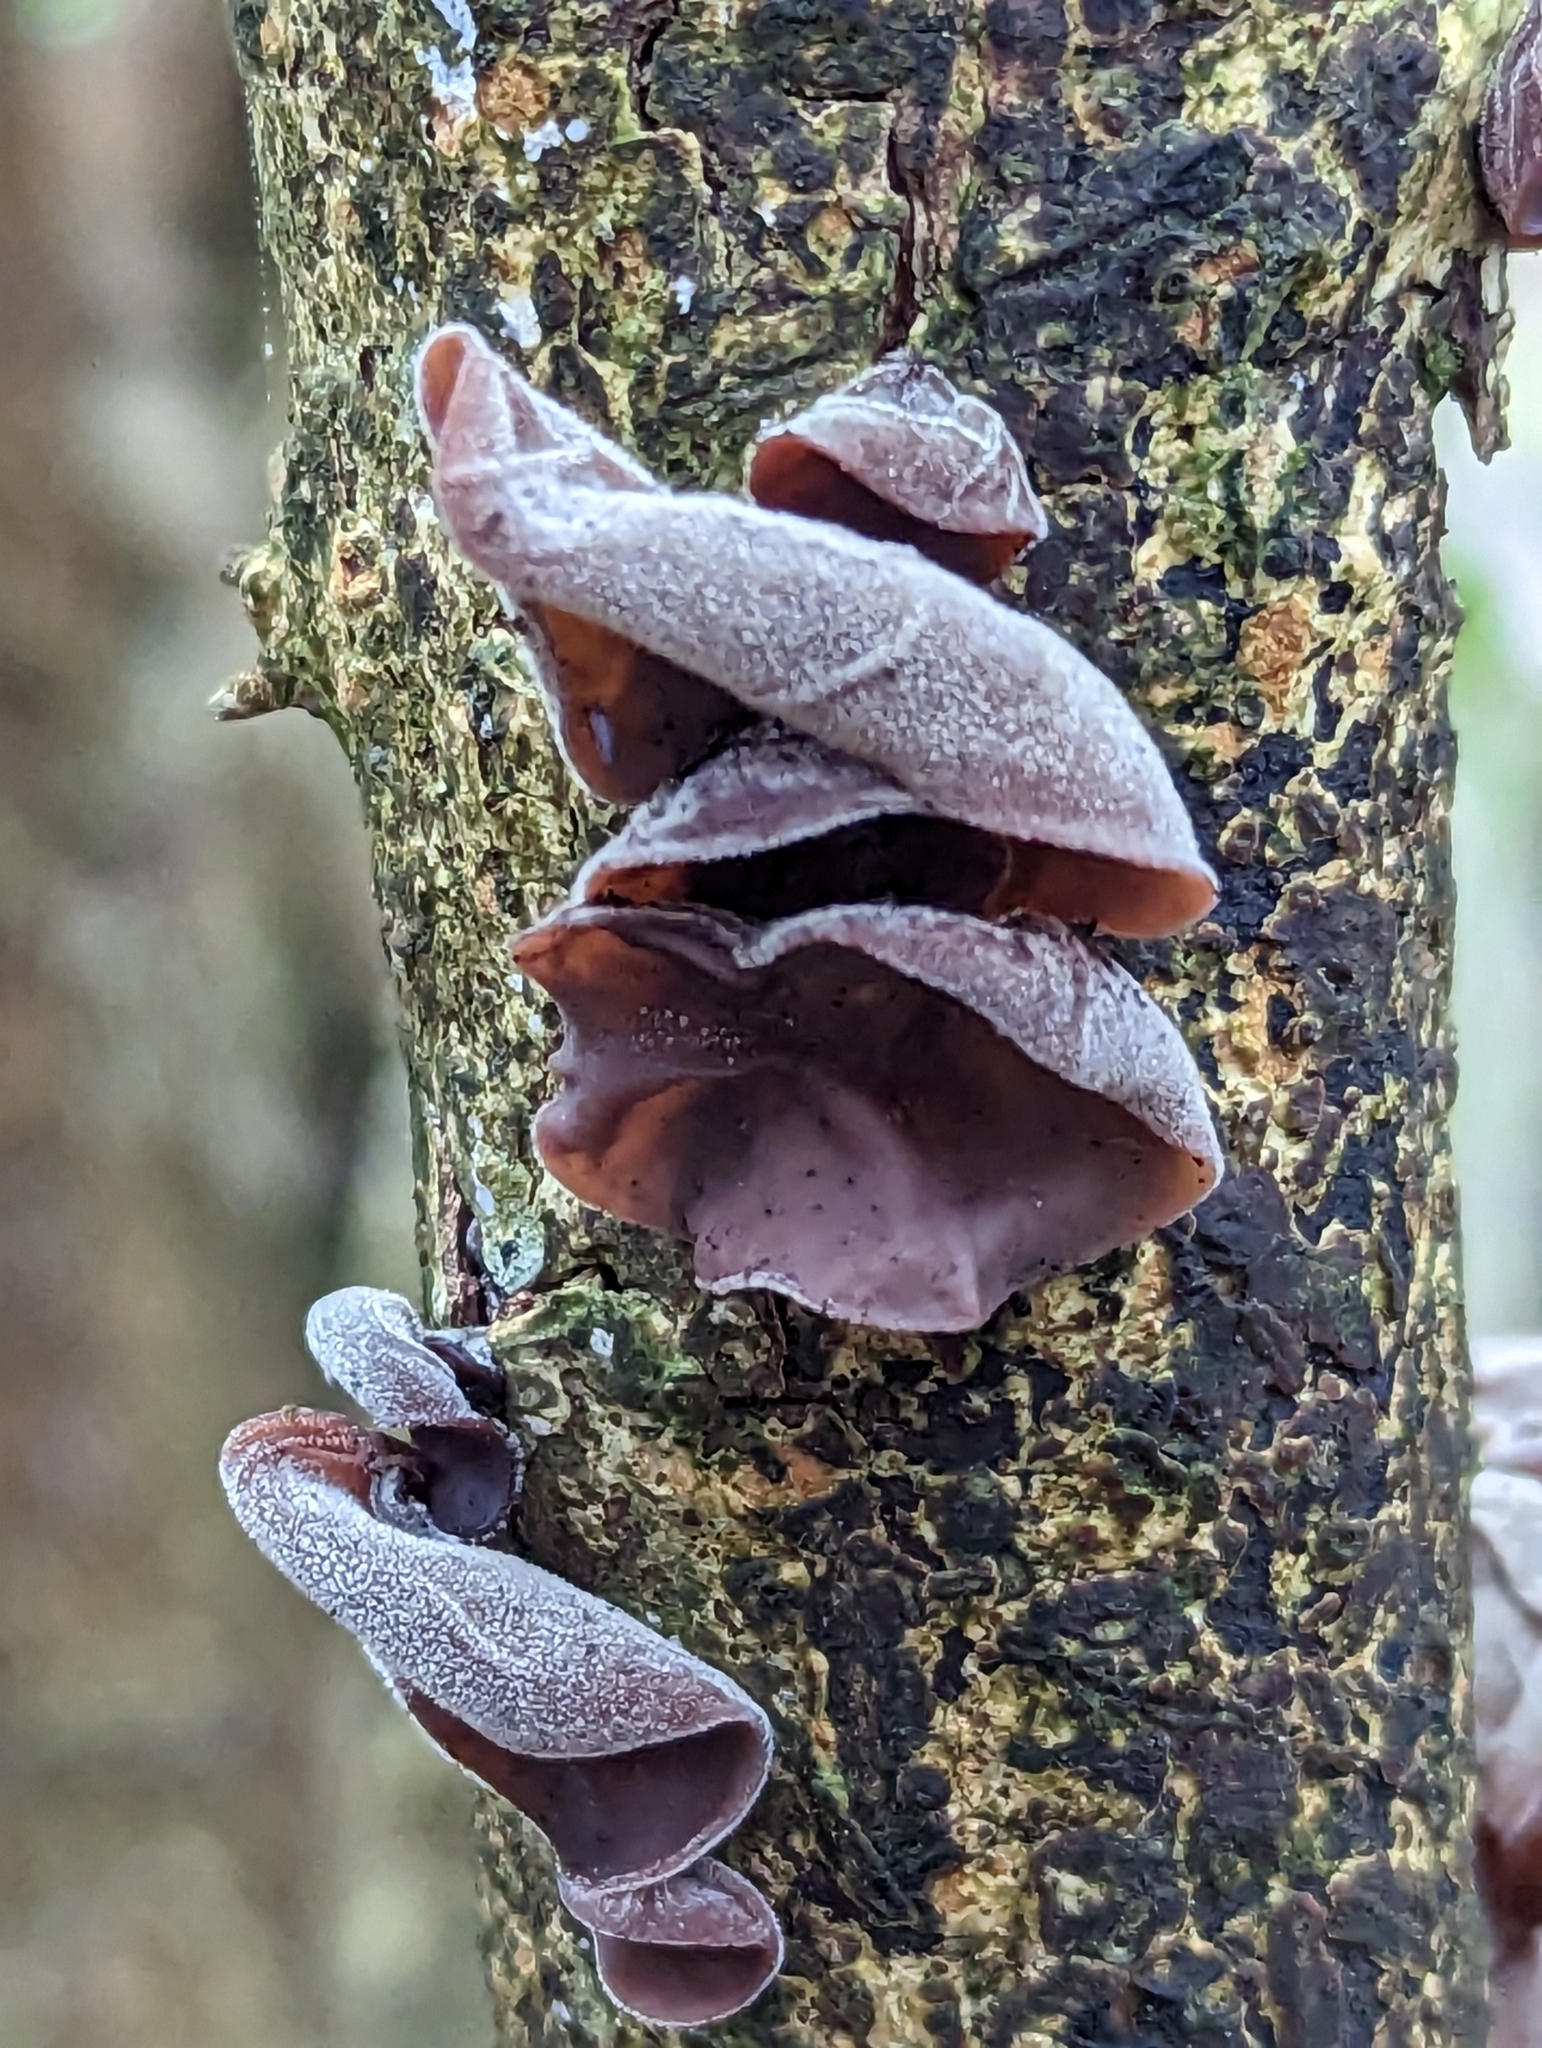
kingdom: Fungi
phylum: Basidiomycota
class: Agaricomycetes
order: Auriculariales
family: Auriculariaceae
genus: Auricularia
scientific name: Auricularia auricula-judae
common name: Jelly ear
